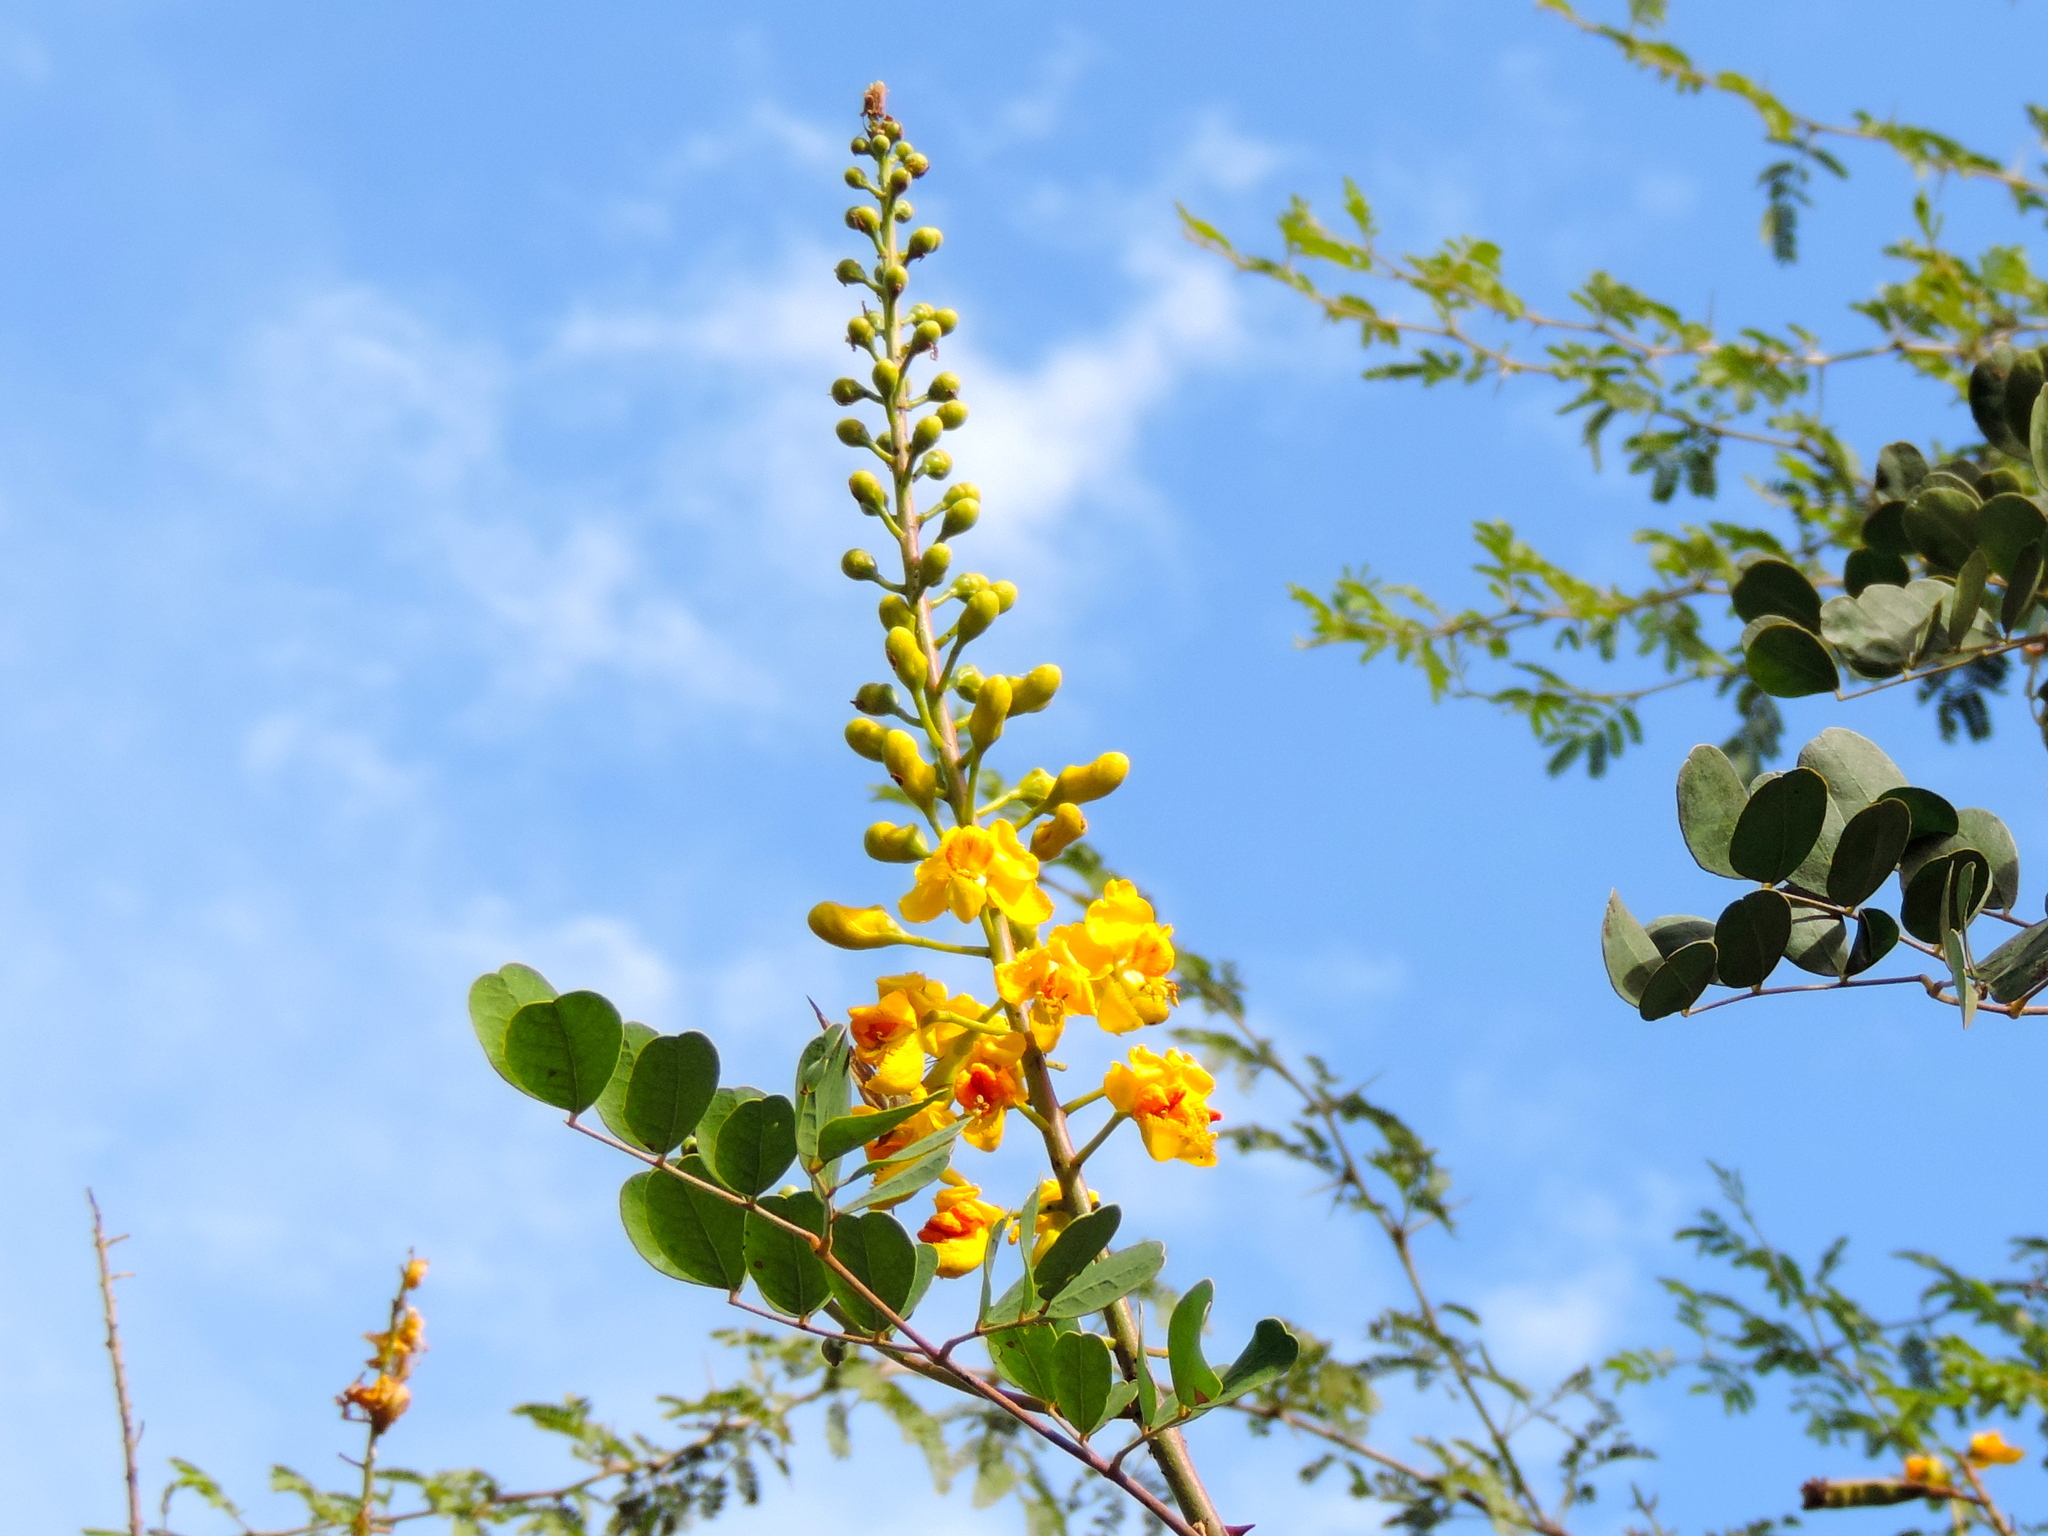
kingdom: Plantae
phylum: Tracheophyta
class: Magnoliopsida
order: Fabales
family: Fabaceae
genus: Tara
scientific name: Tara cacalaco
